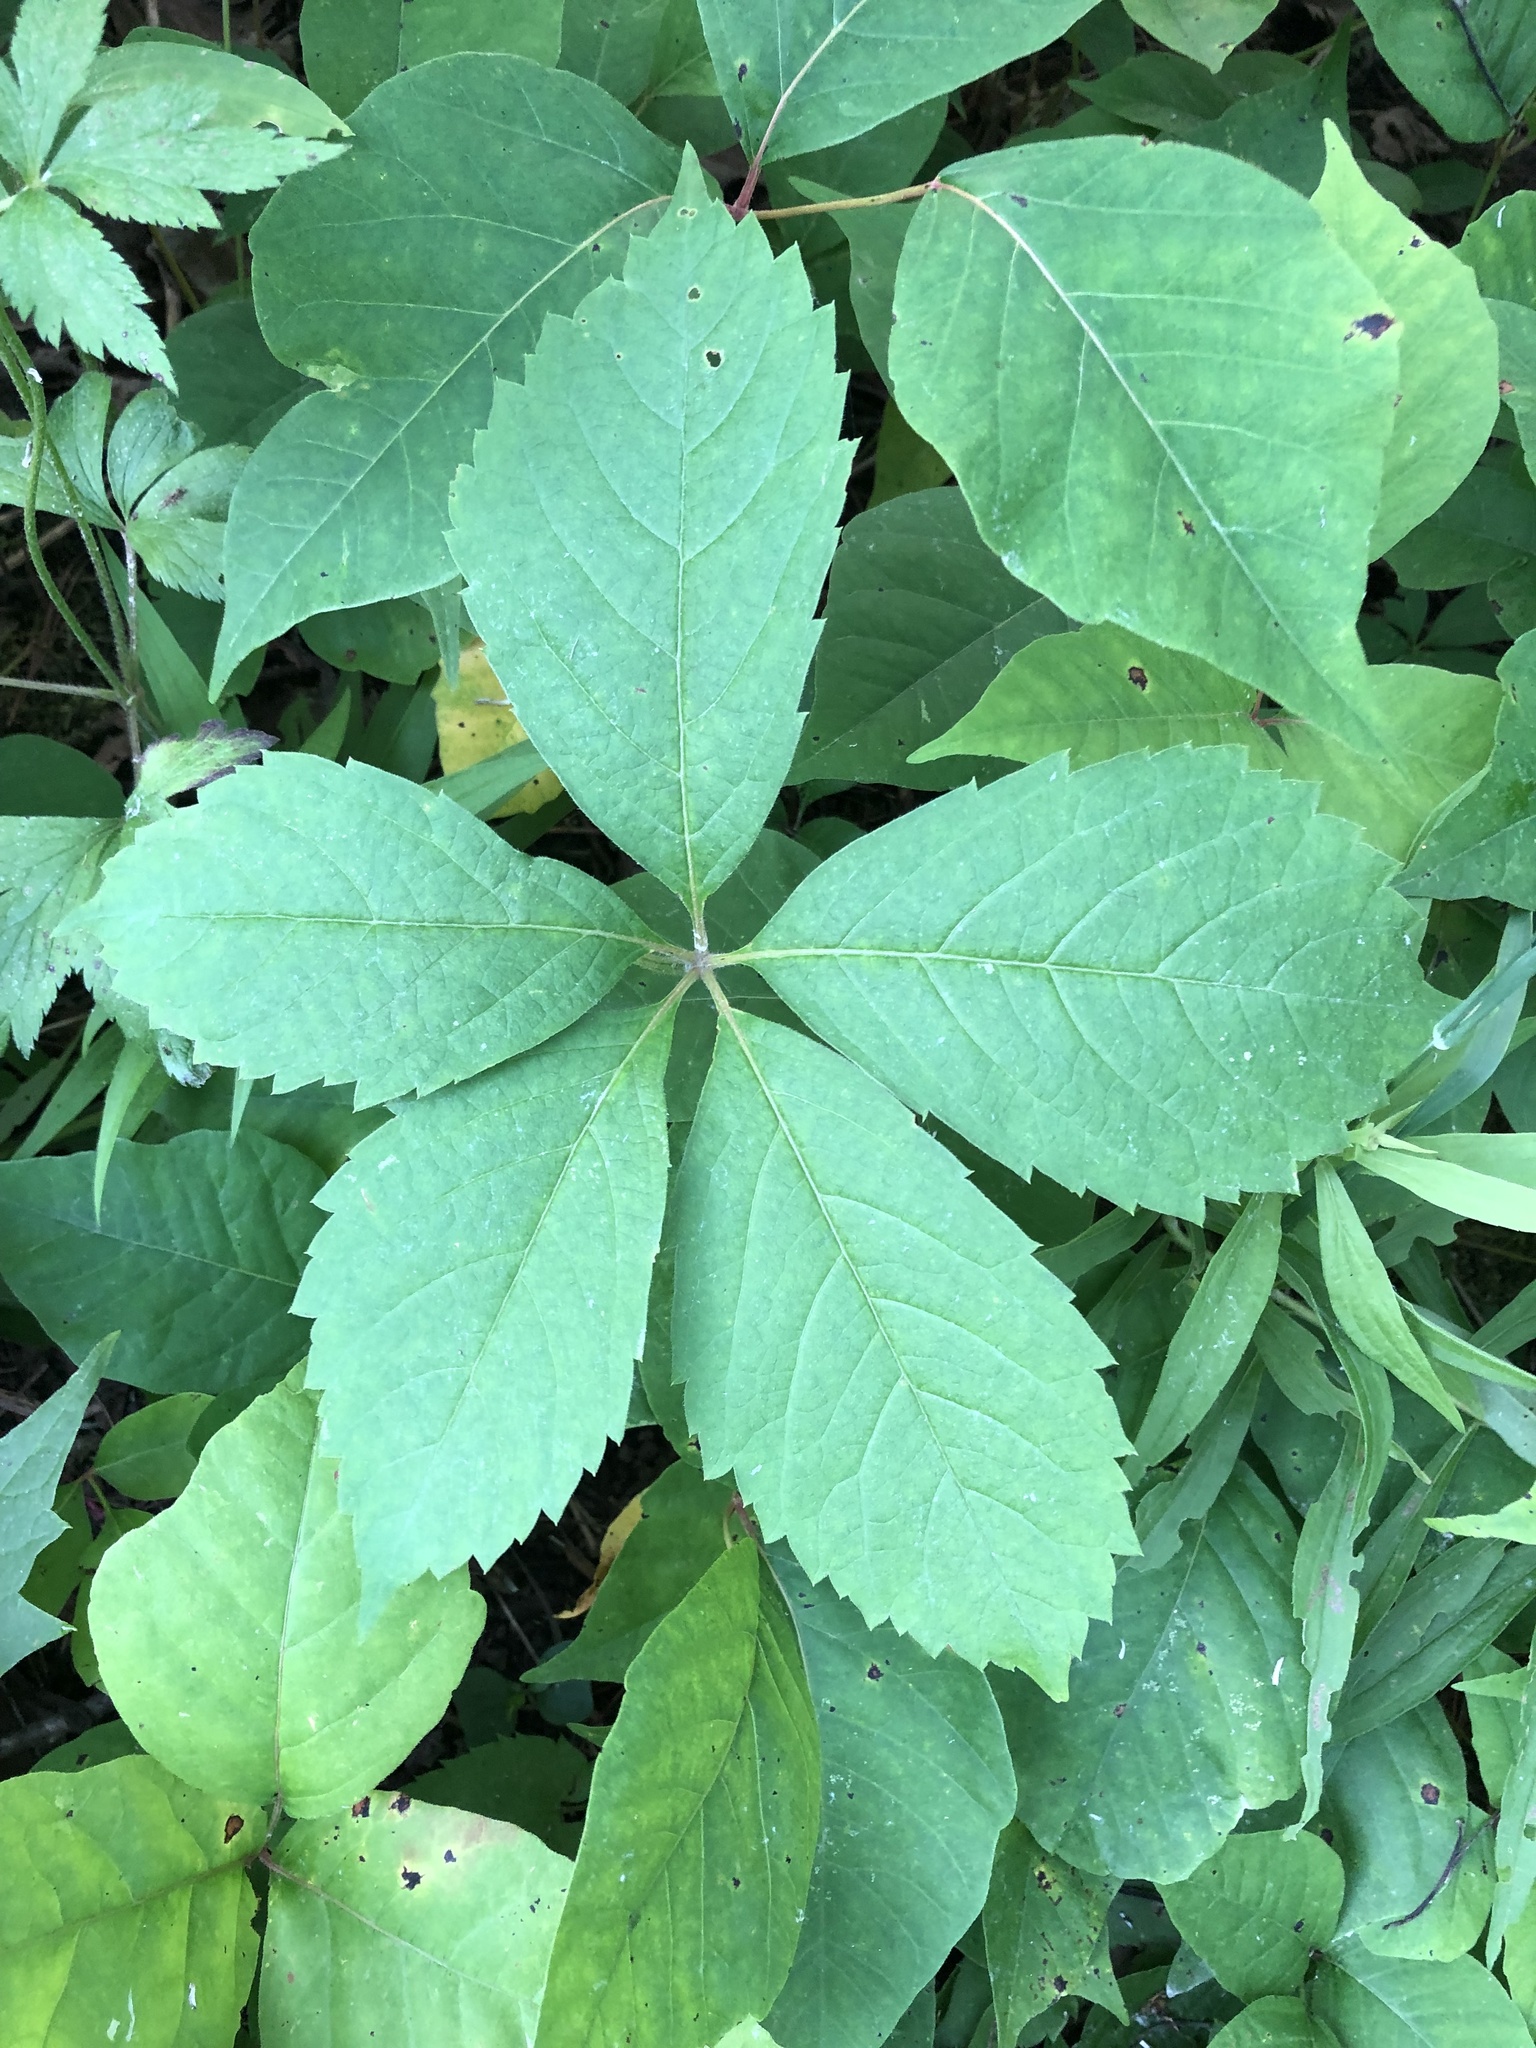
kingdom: Plantae
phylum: Tracheophyta
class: Magnoliopsida
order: Vitales
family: Vitaceae
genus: Parthenocissus
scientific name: Parthenocissus quinquefolia
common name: Virginia-creeper
